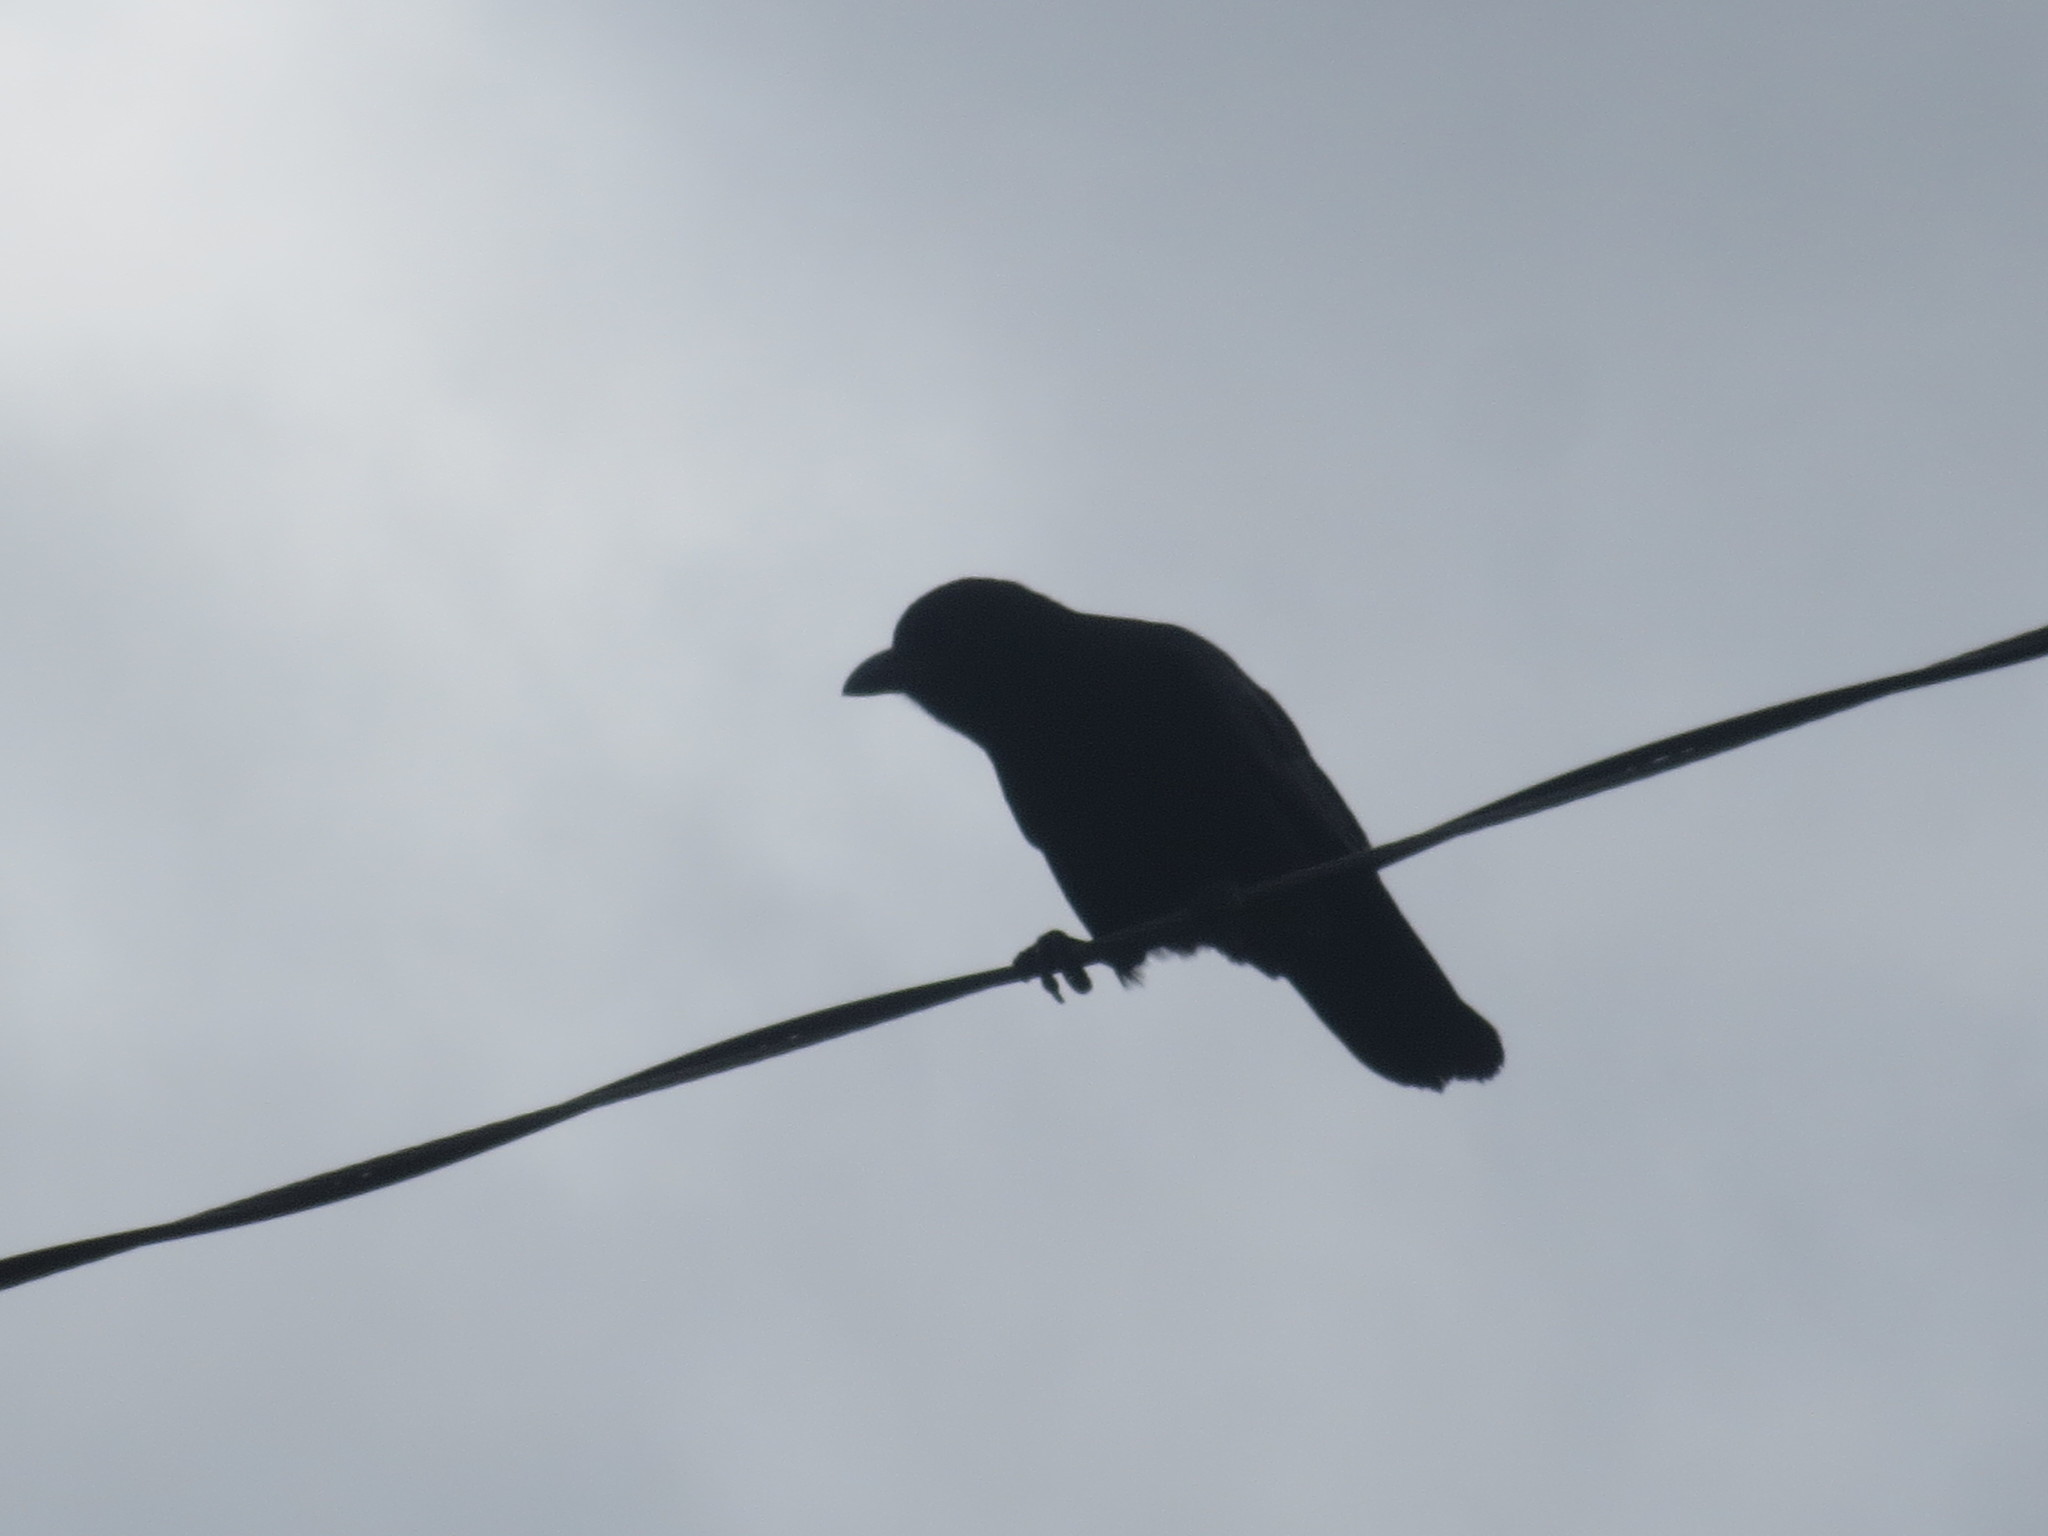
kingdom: Animalia
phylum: Chordata
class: Aves
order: Passeriformes
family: Corvidae
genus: Corvus
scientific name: Corvus brachyrhynchos
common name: American crow
